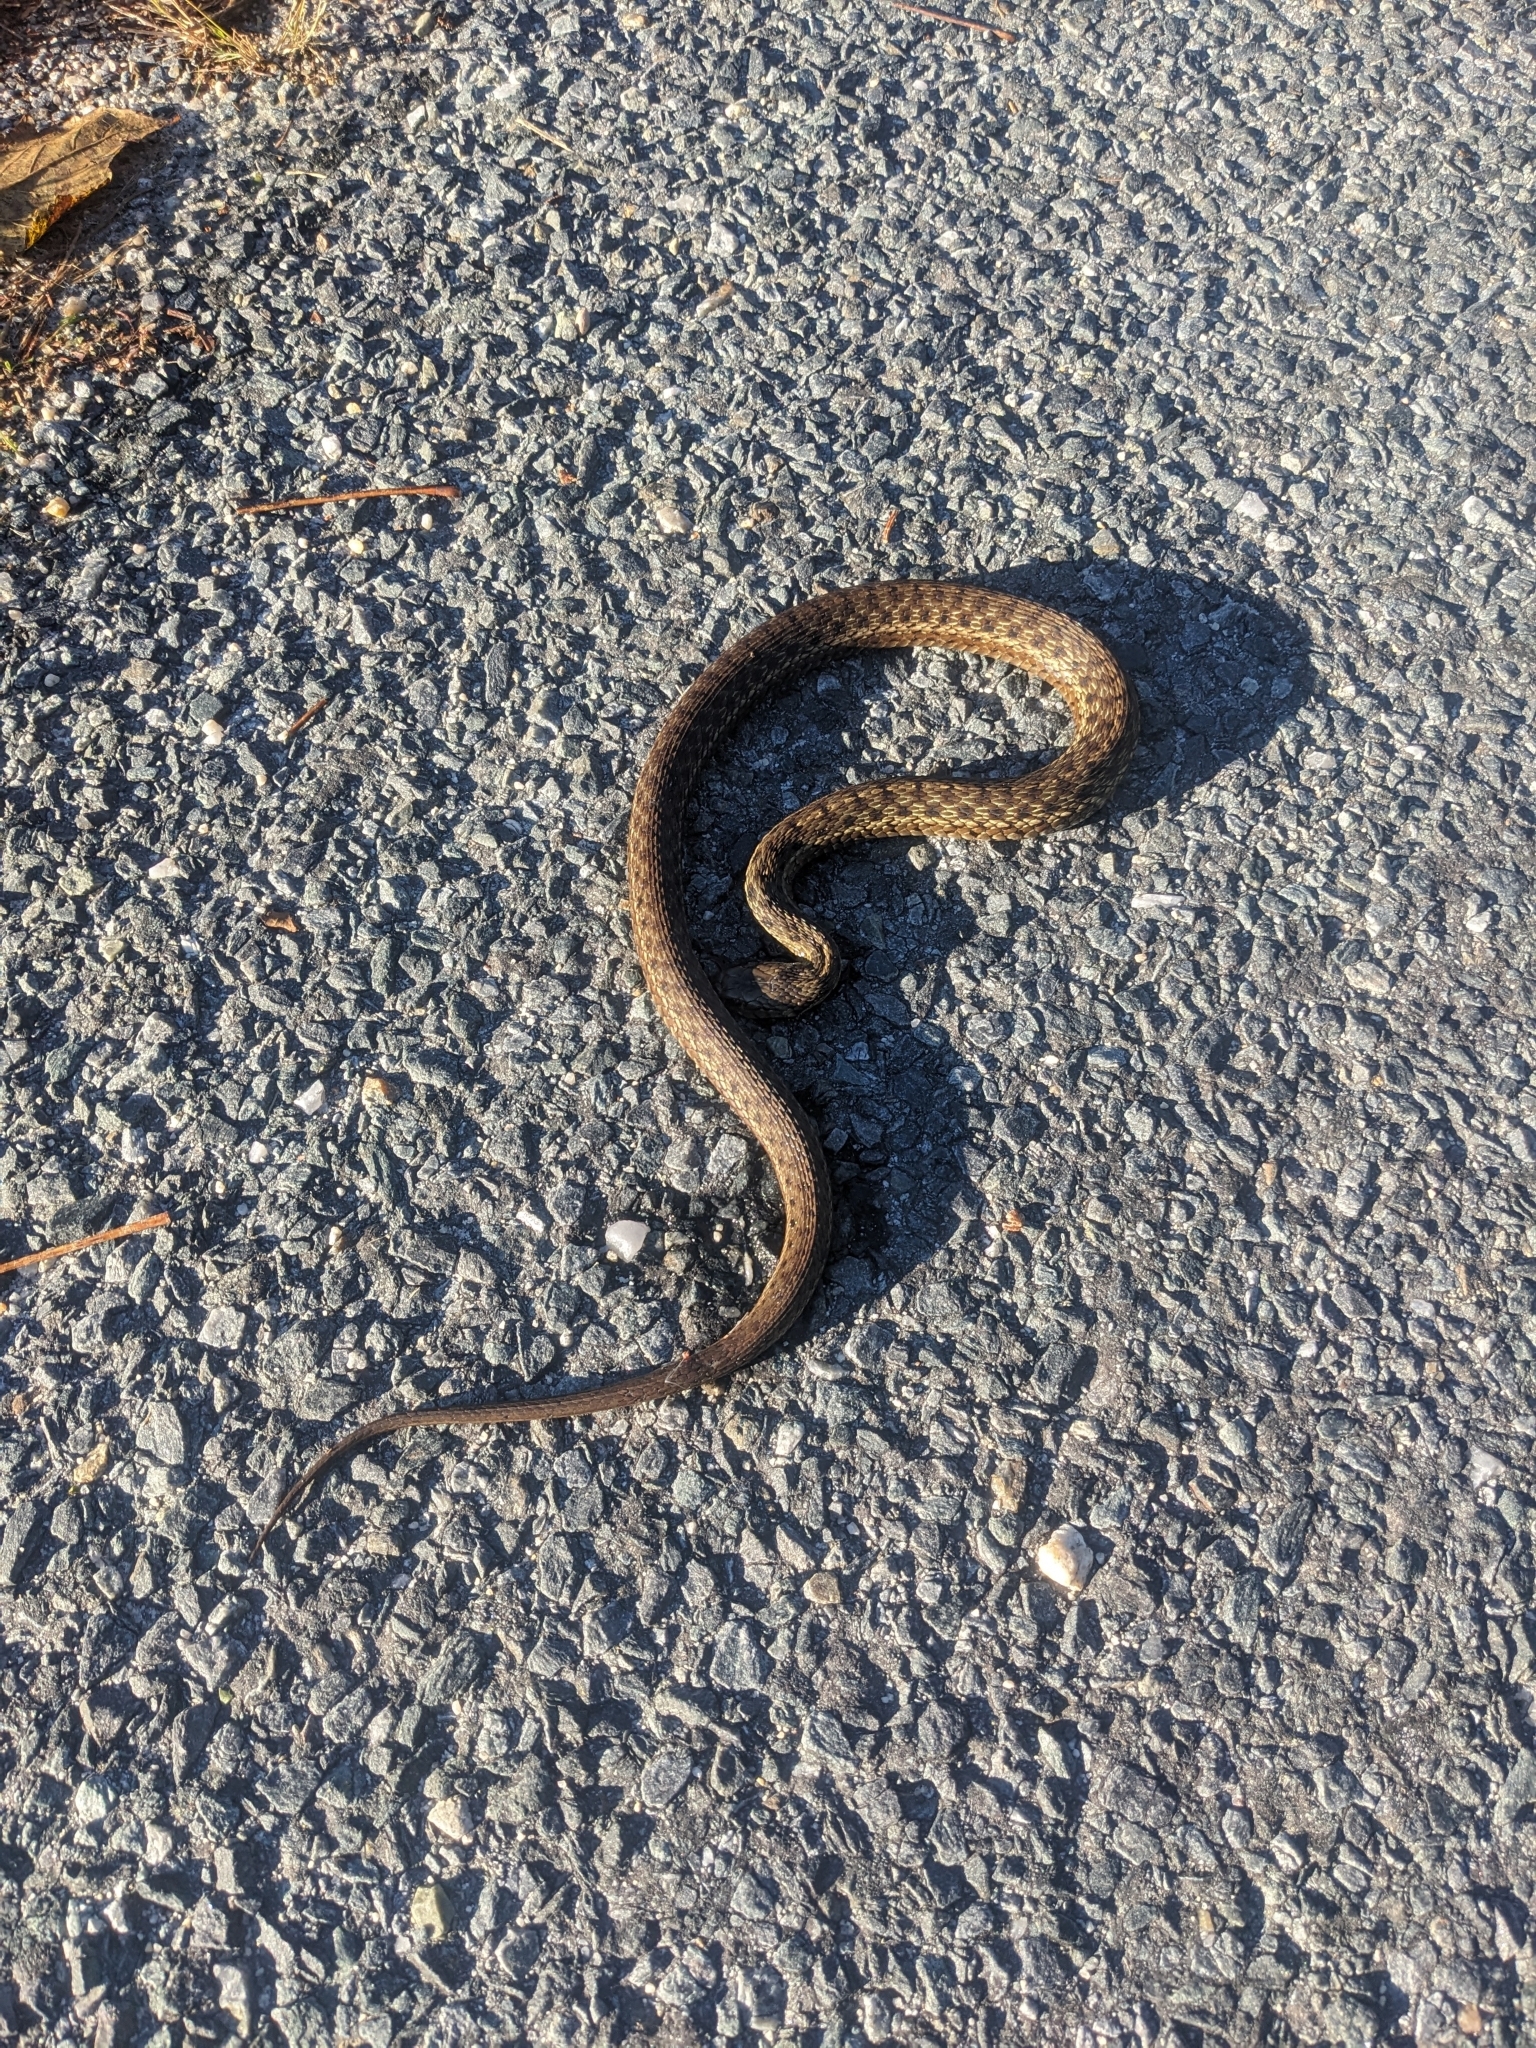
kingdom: Animalia
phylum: Chordata
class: Squamata
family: Colubridae
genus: Thamnophis
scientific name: Thamnophis sirtalis
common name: Common garter snake
